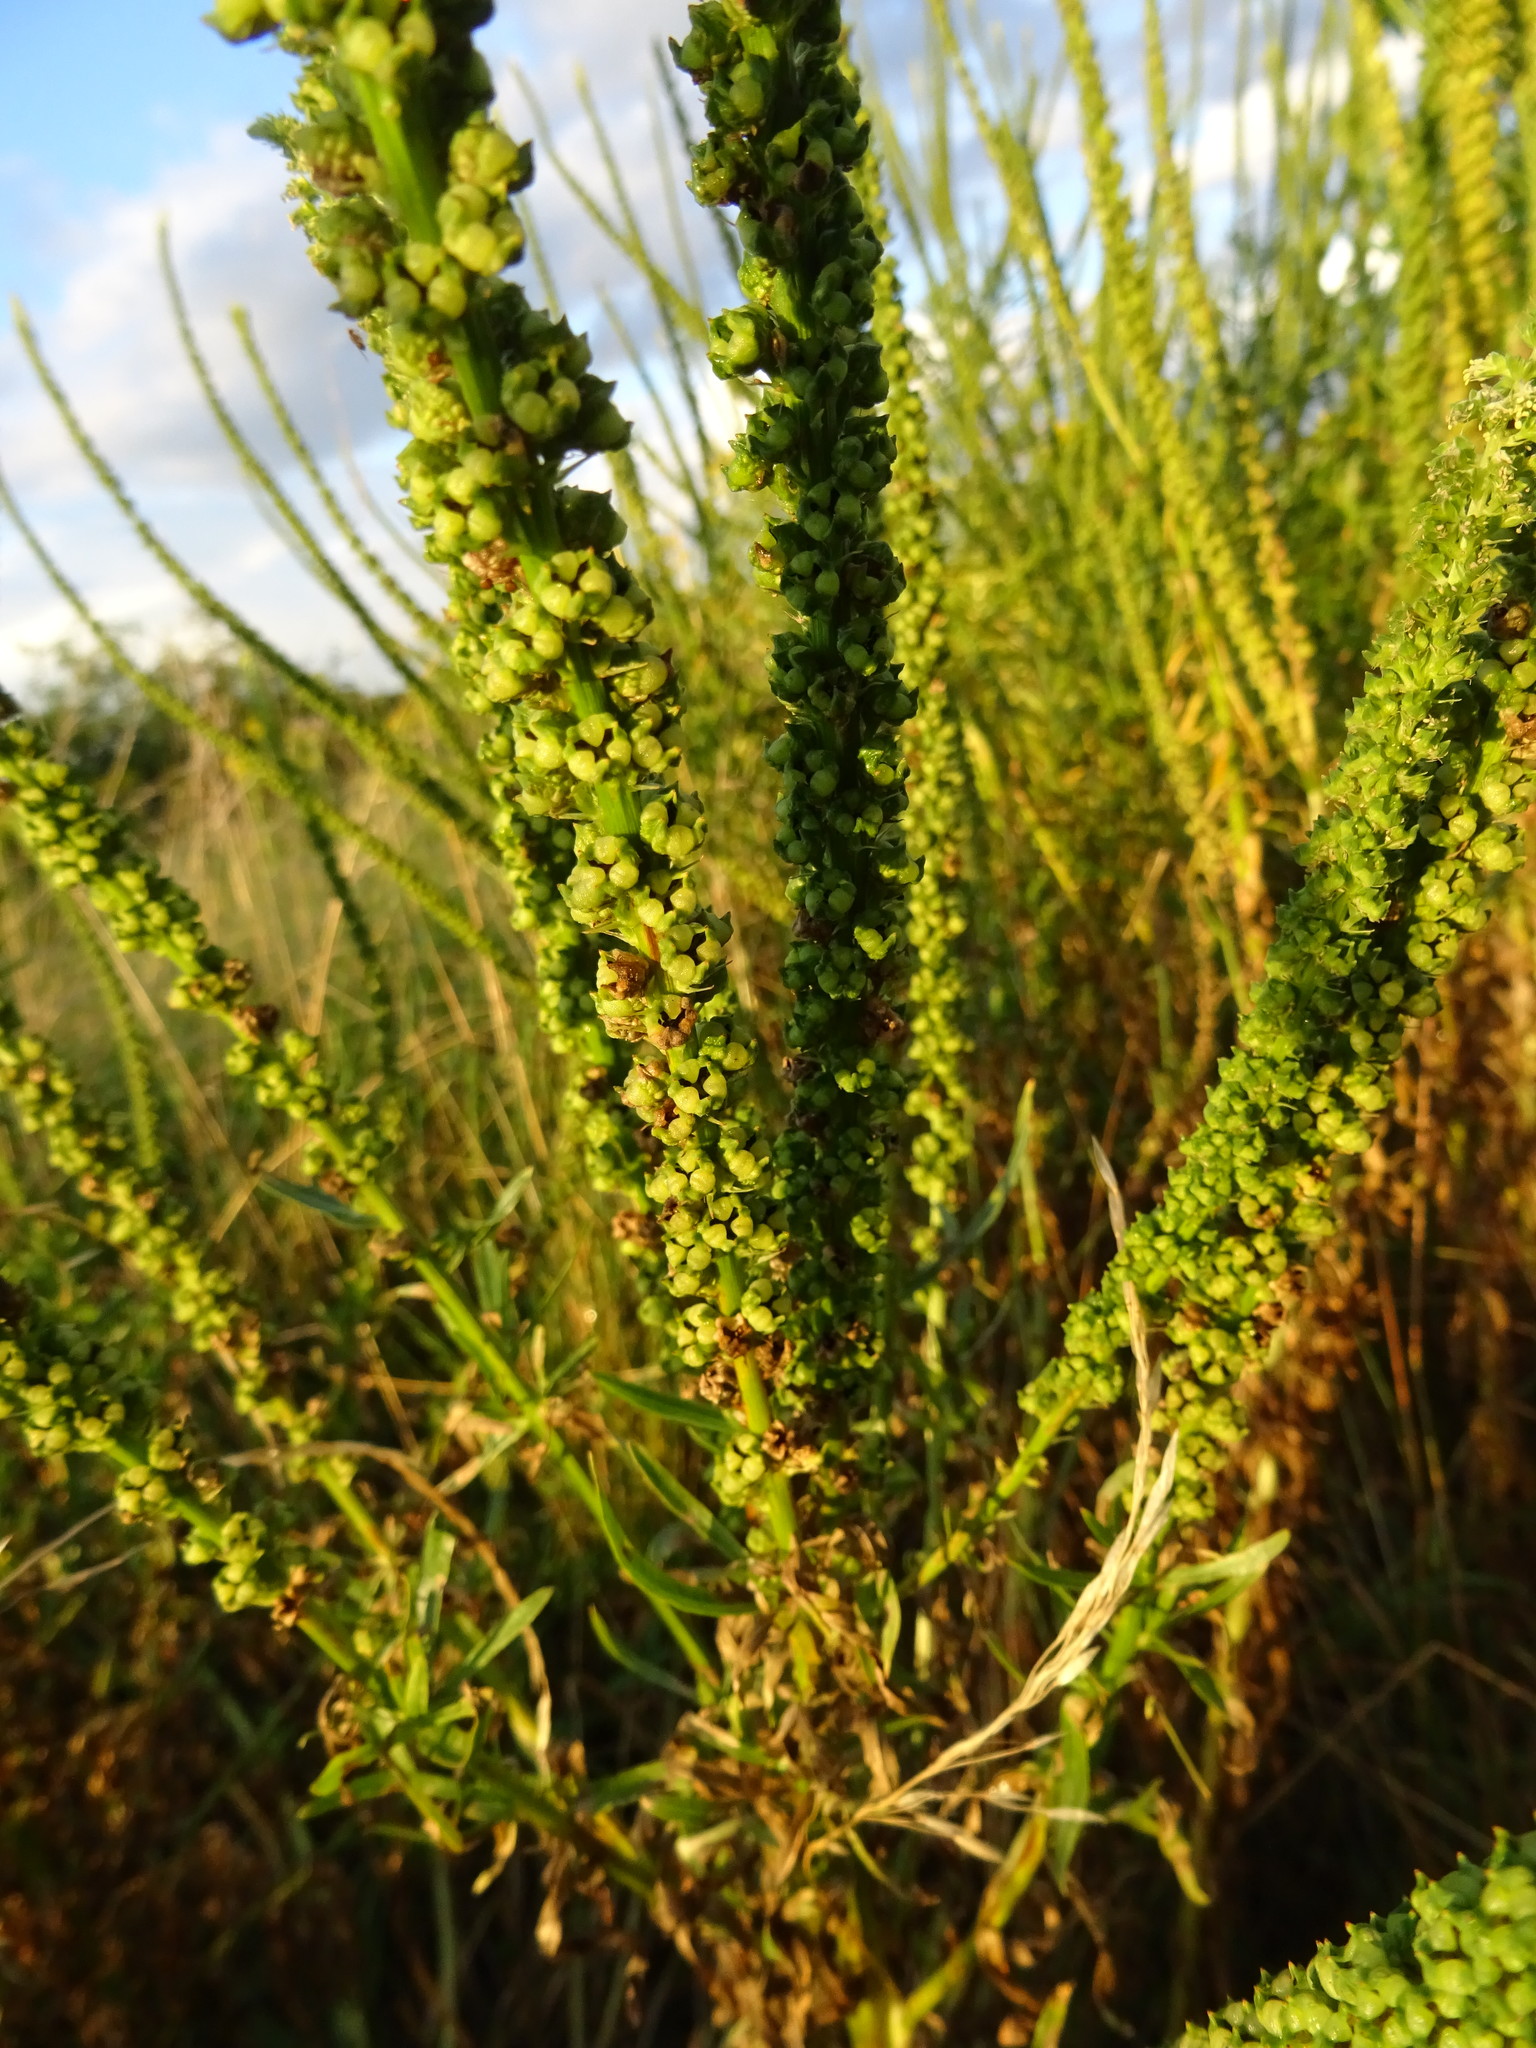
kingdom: Plantae
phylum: Tracheophyta
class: Magnoliopsida
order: Brassicales
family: Resedaceae
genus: Reseda
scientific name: Reseda luteola
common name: Weld
